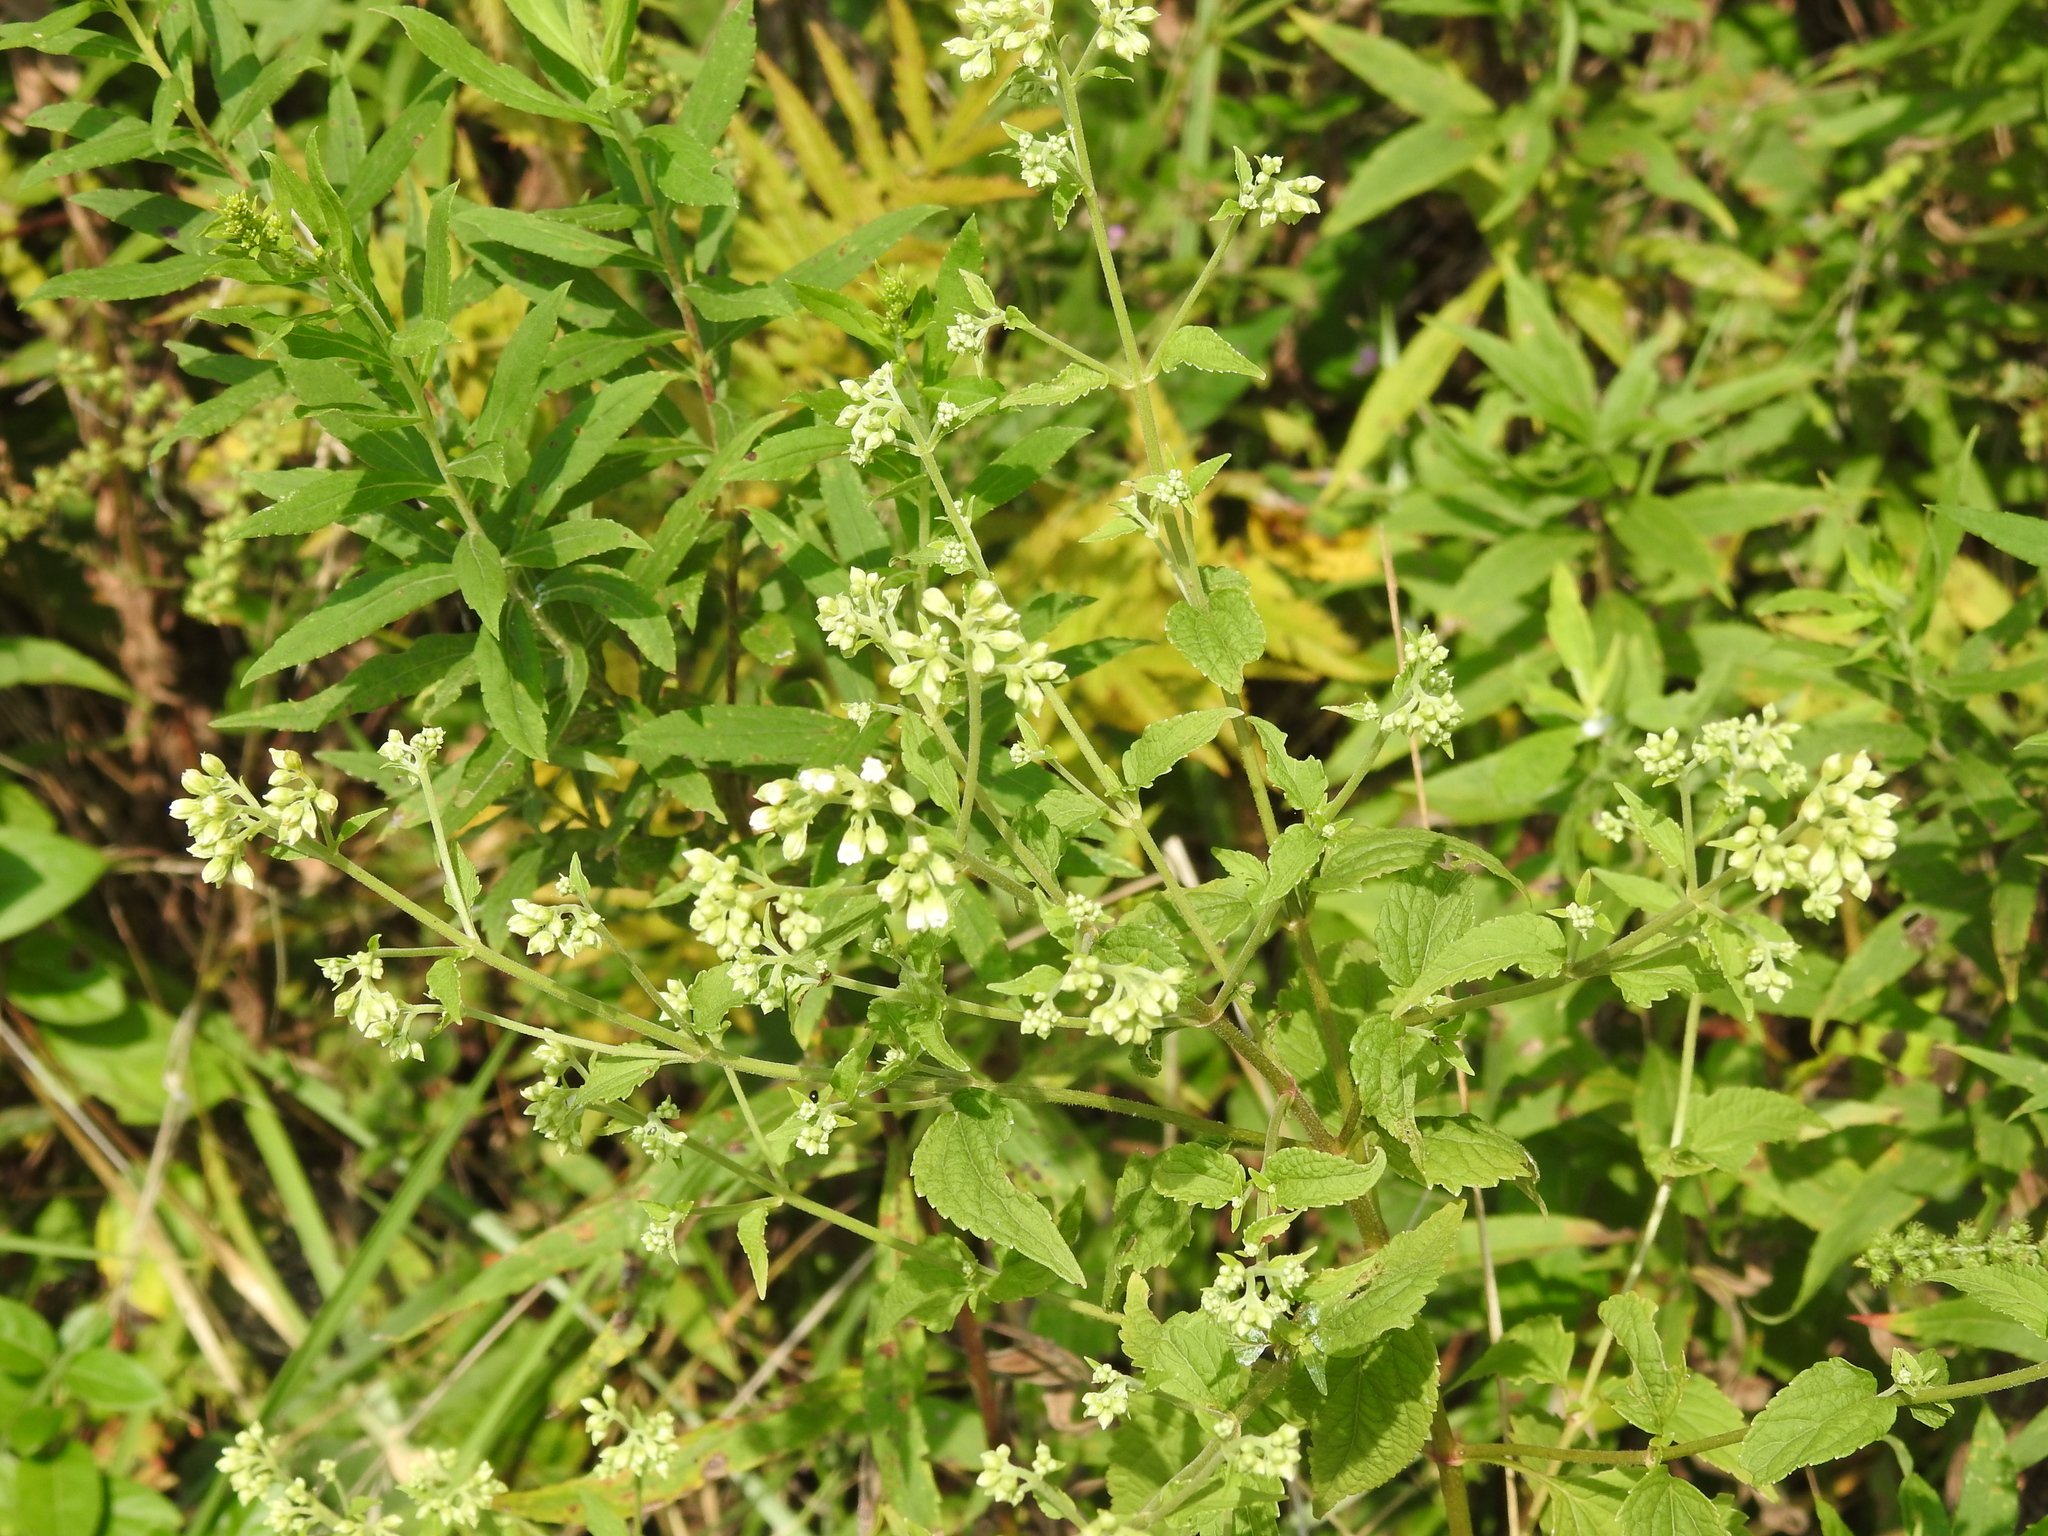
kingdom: Plantae
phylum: Tracheophyta
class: Magnoliopsida
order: Asterales
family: Asteraceae
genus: Ageratina
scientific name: Ageratina altissima
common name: White snakeroot
